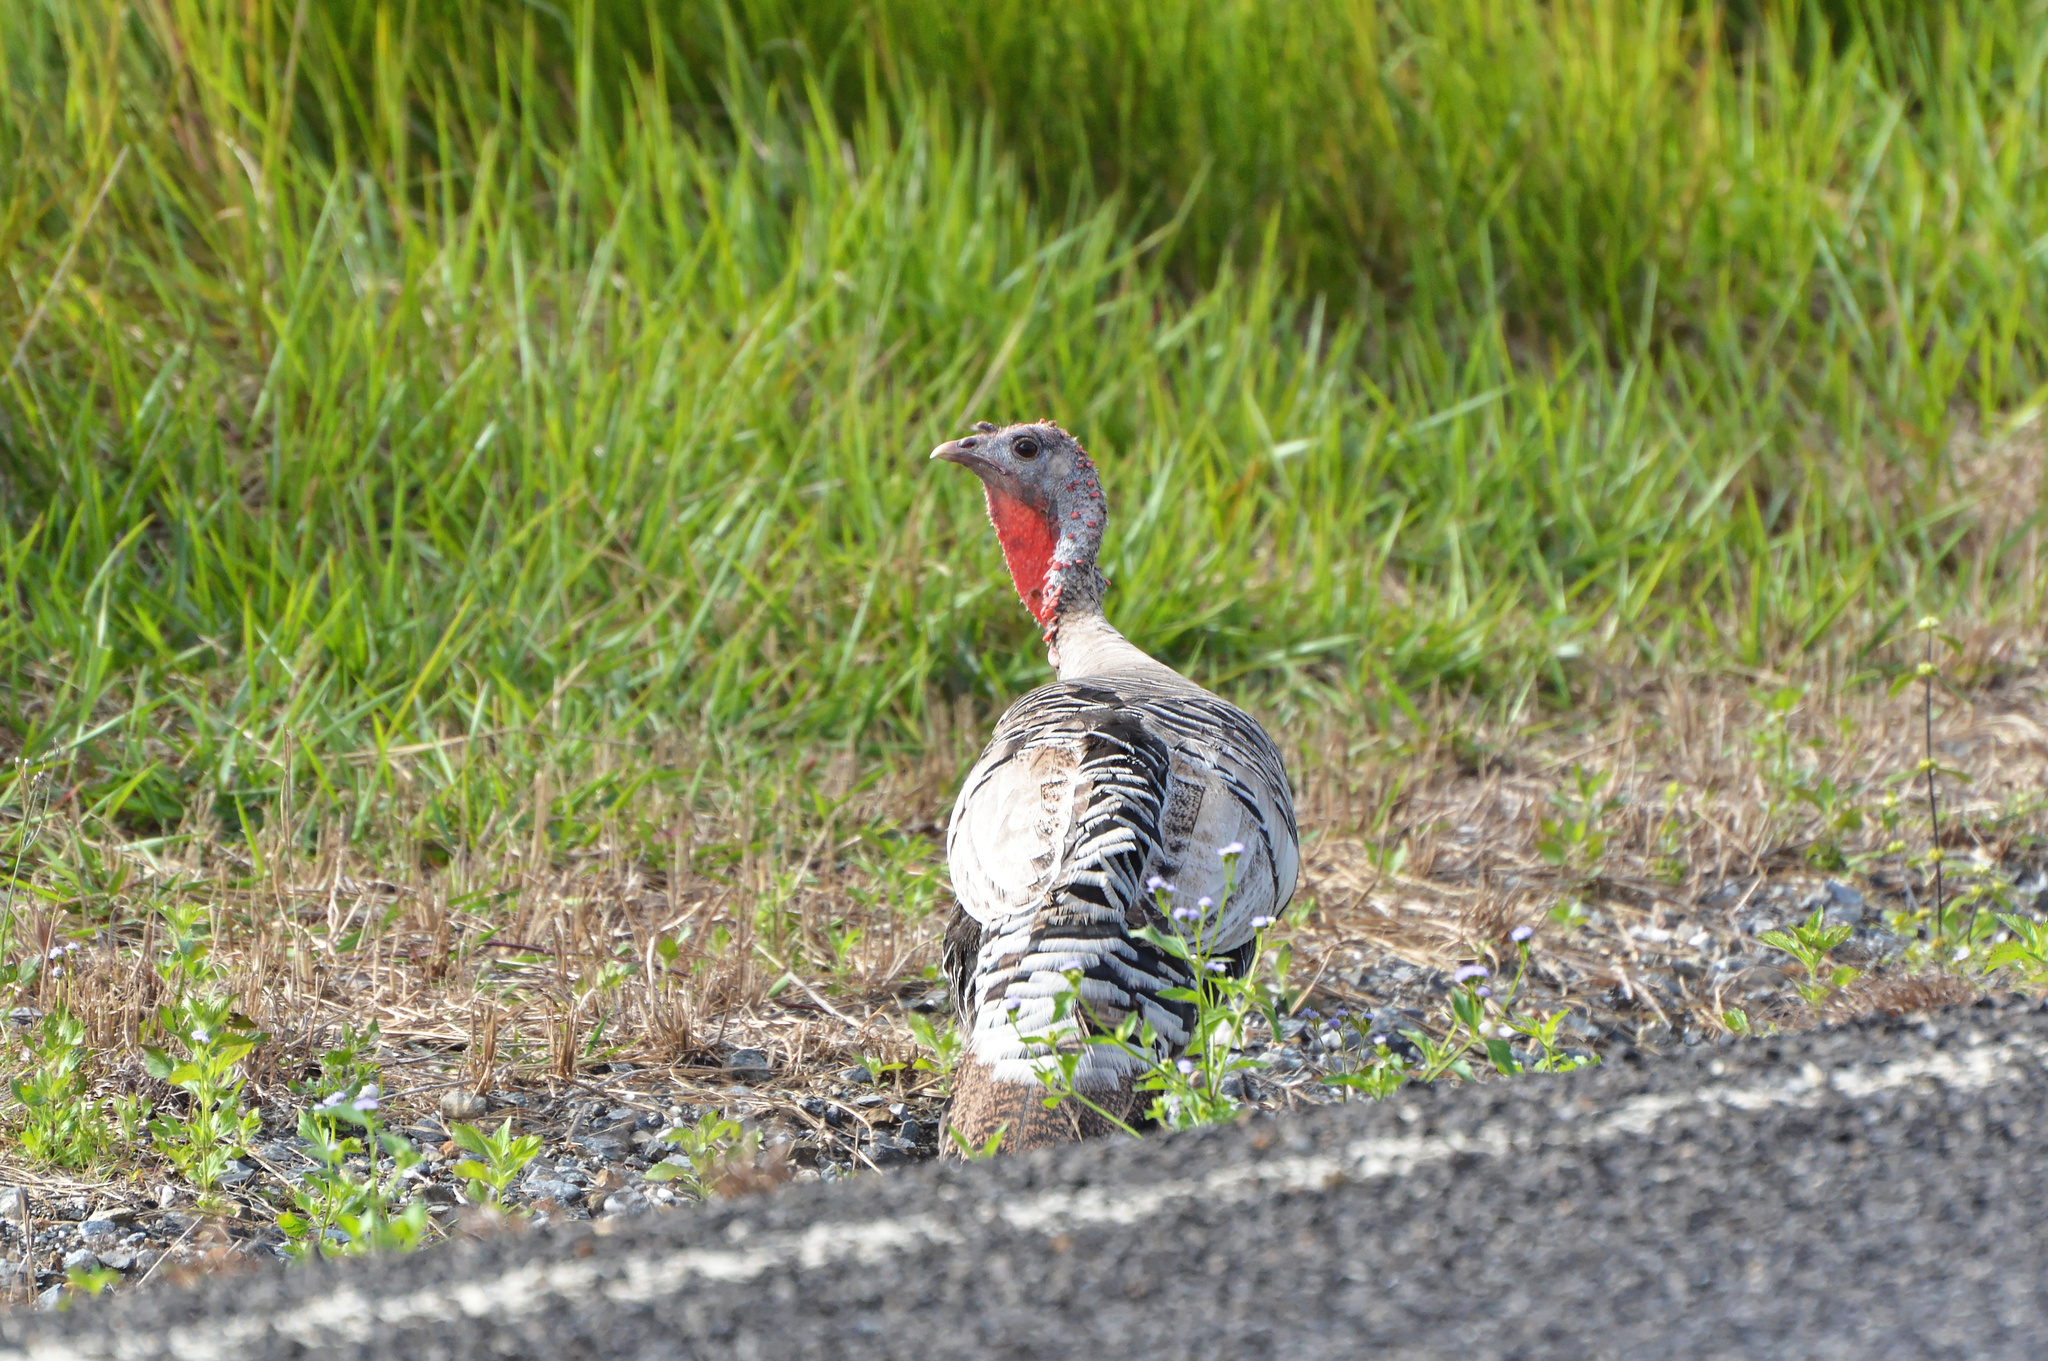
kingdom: Animalia
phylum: Chordata
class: Aves
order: Galliformes
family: Phasianidae
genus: Meleagris
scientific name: Meleagris gallopavo
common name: Wild turkey
